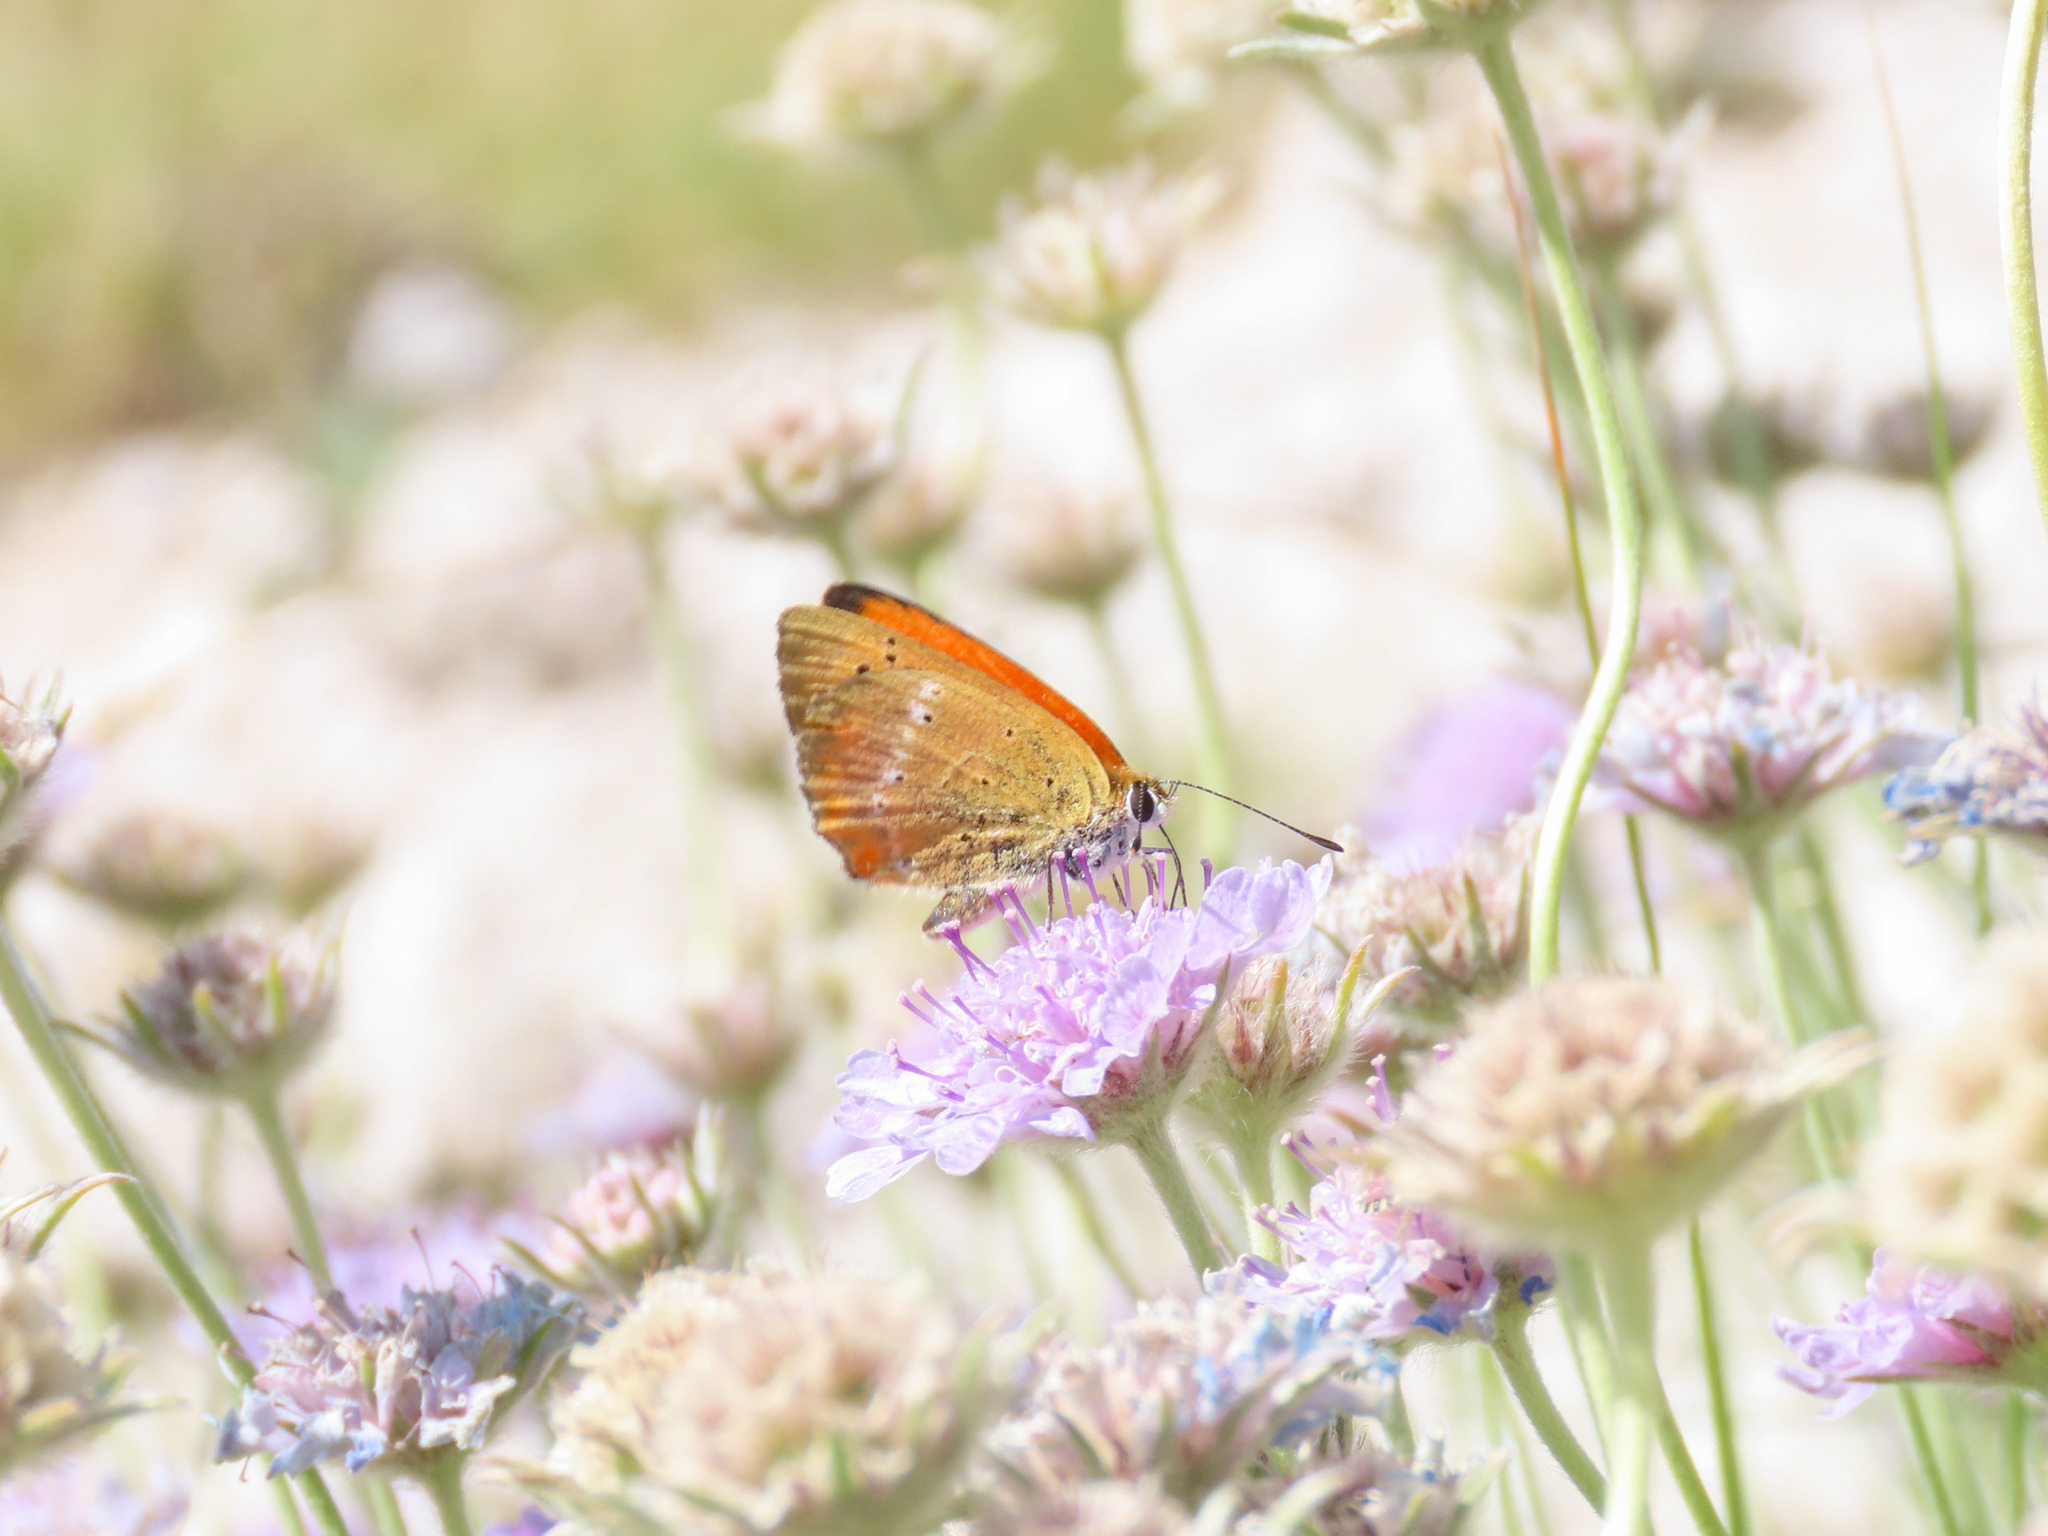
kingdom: Animalia
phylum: Arthropoda
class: Insecta
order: Lepidoptera
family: Lycaenidae
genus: Lycaena
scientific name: Lycaena virgaureae
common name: Scarce copper
